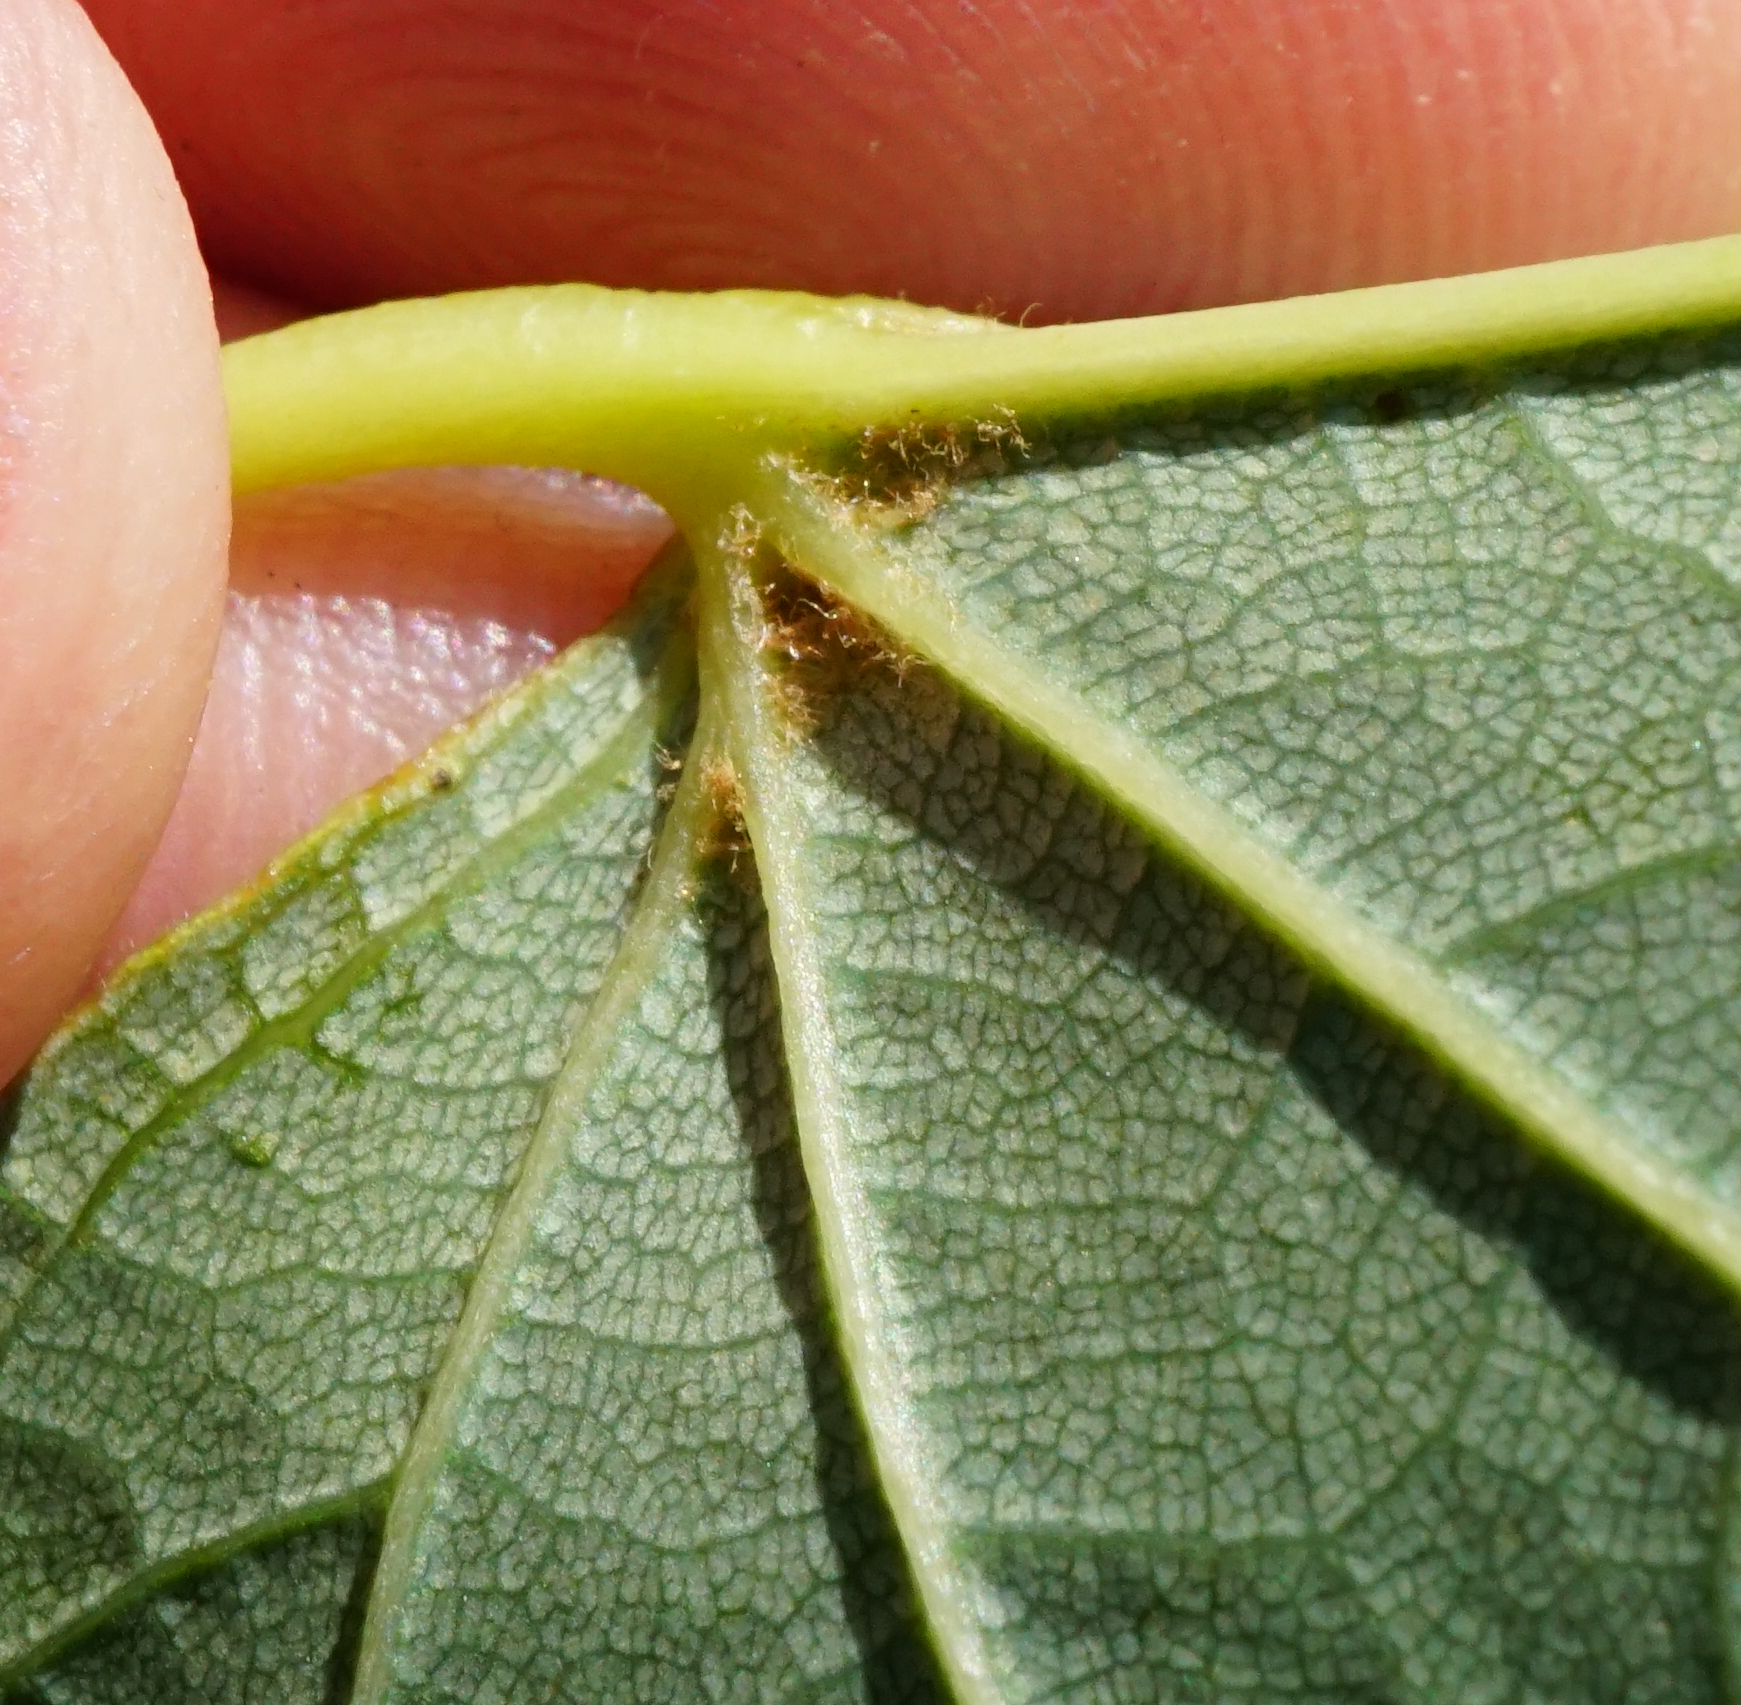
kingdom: Plantae
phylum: Tracheophyta
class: Magnoliopsida
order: Malvales
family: Malvaceae
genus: Tilia
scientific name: Tilia cordata
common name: Small-leaved lime
